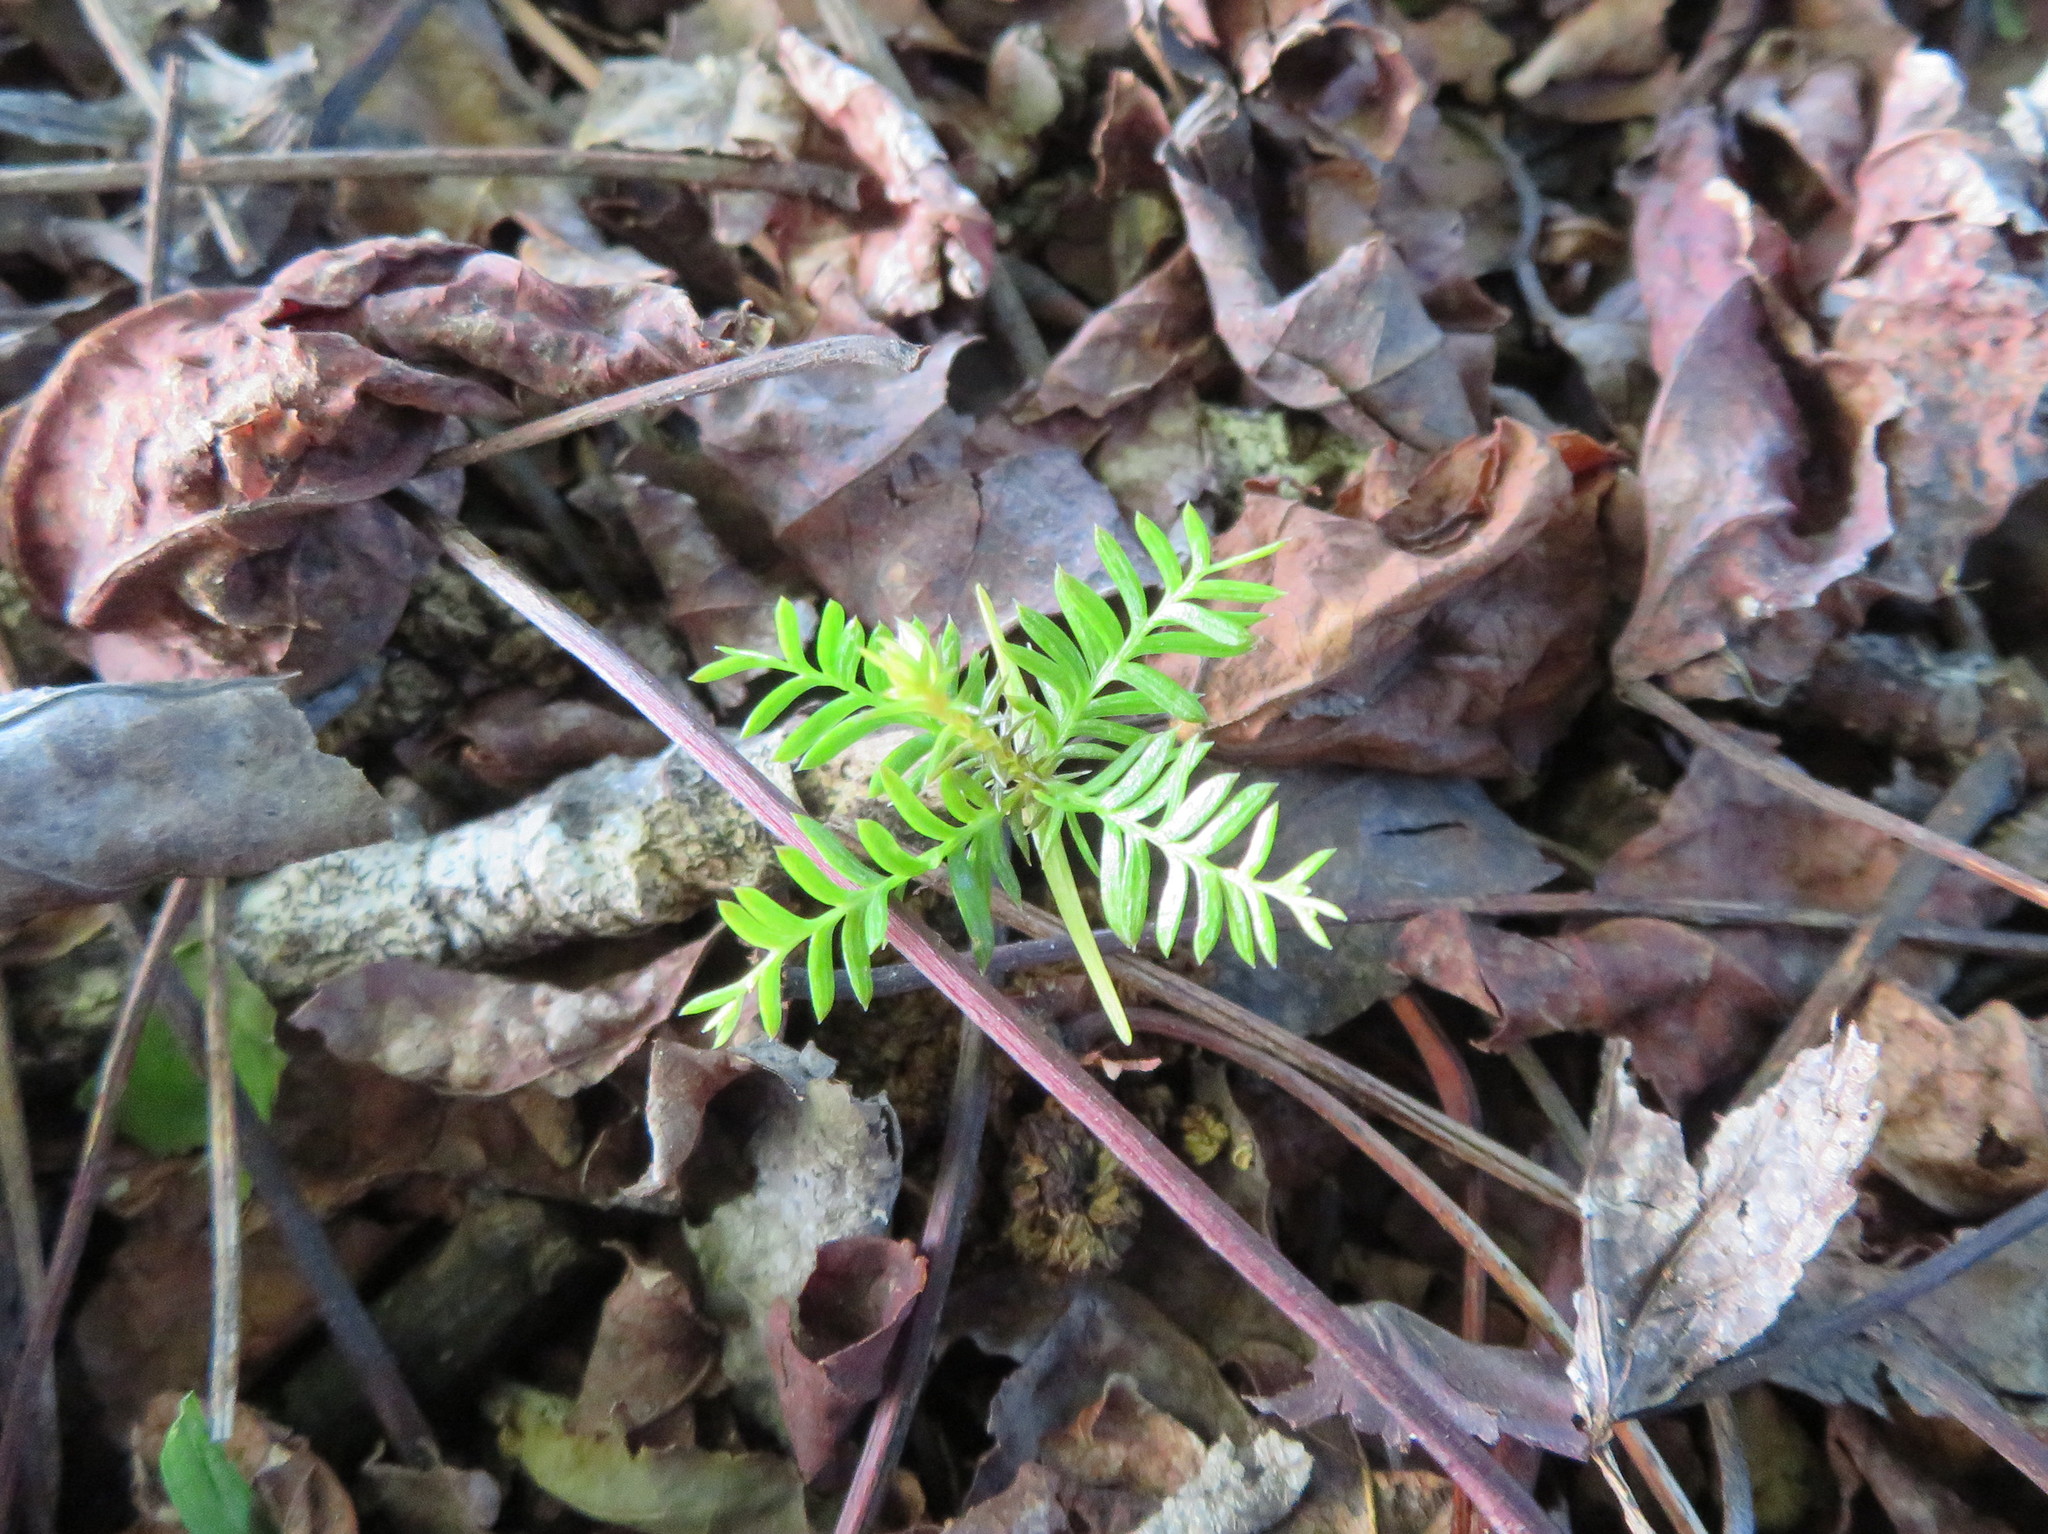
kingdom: Plantae
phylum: Tracheophyta
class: Pinopsida
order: Pinales
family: Podocarpaceae
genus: Dacrycarpus
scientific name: Dacrycarpus dacrydioides
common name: White pine
